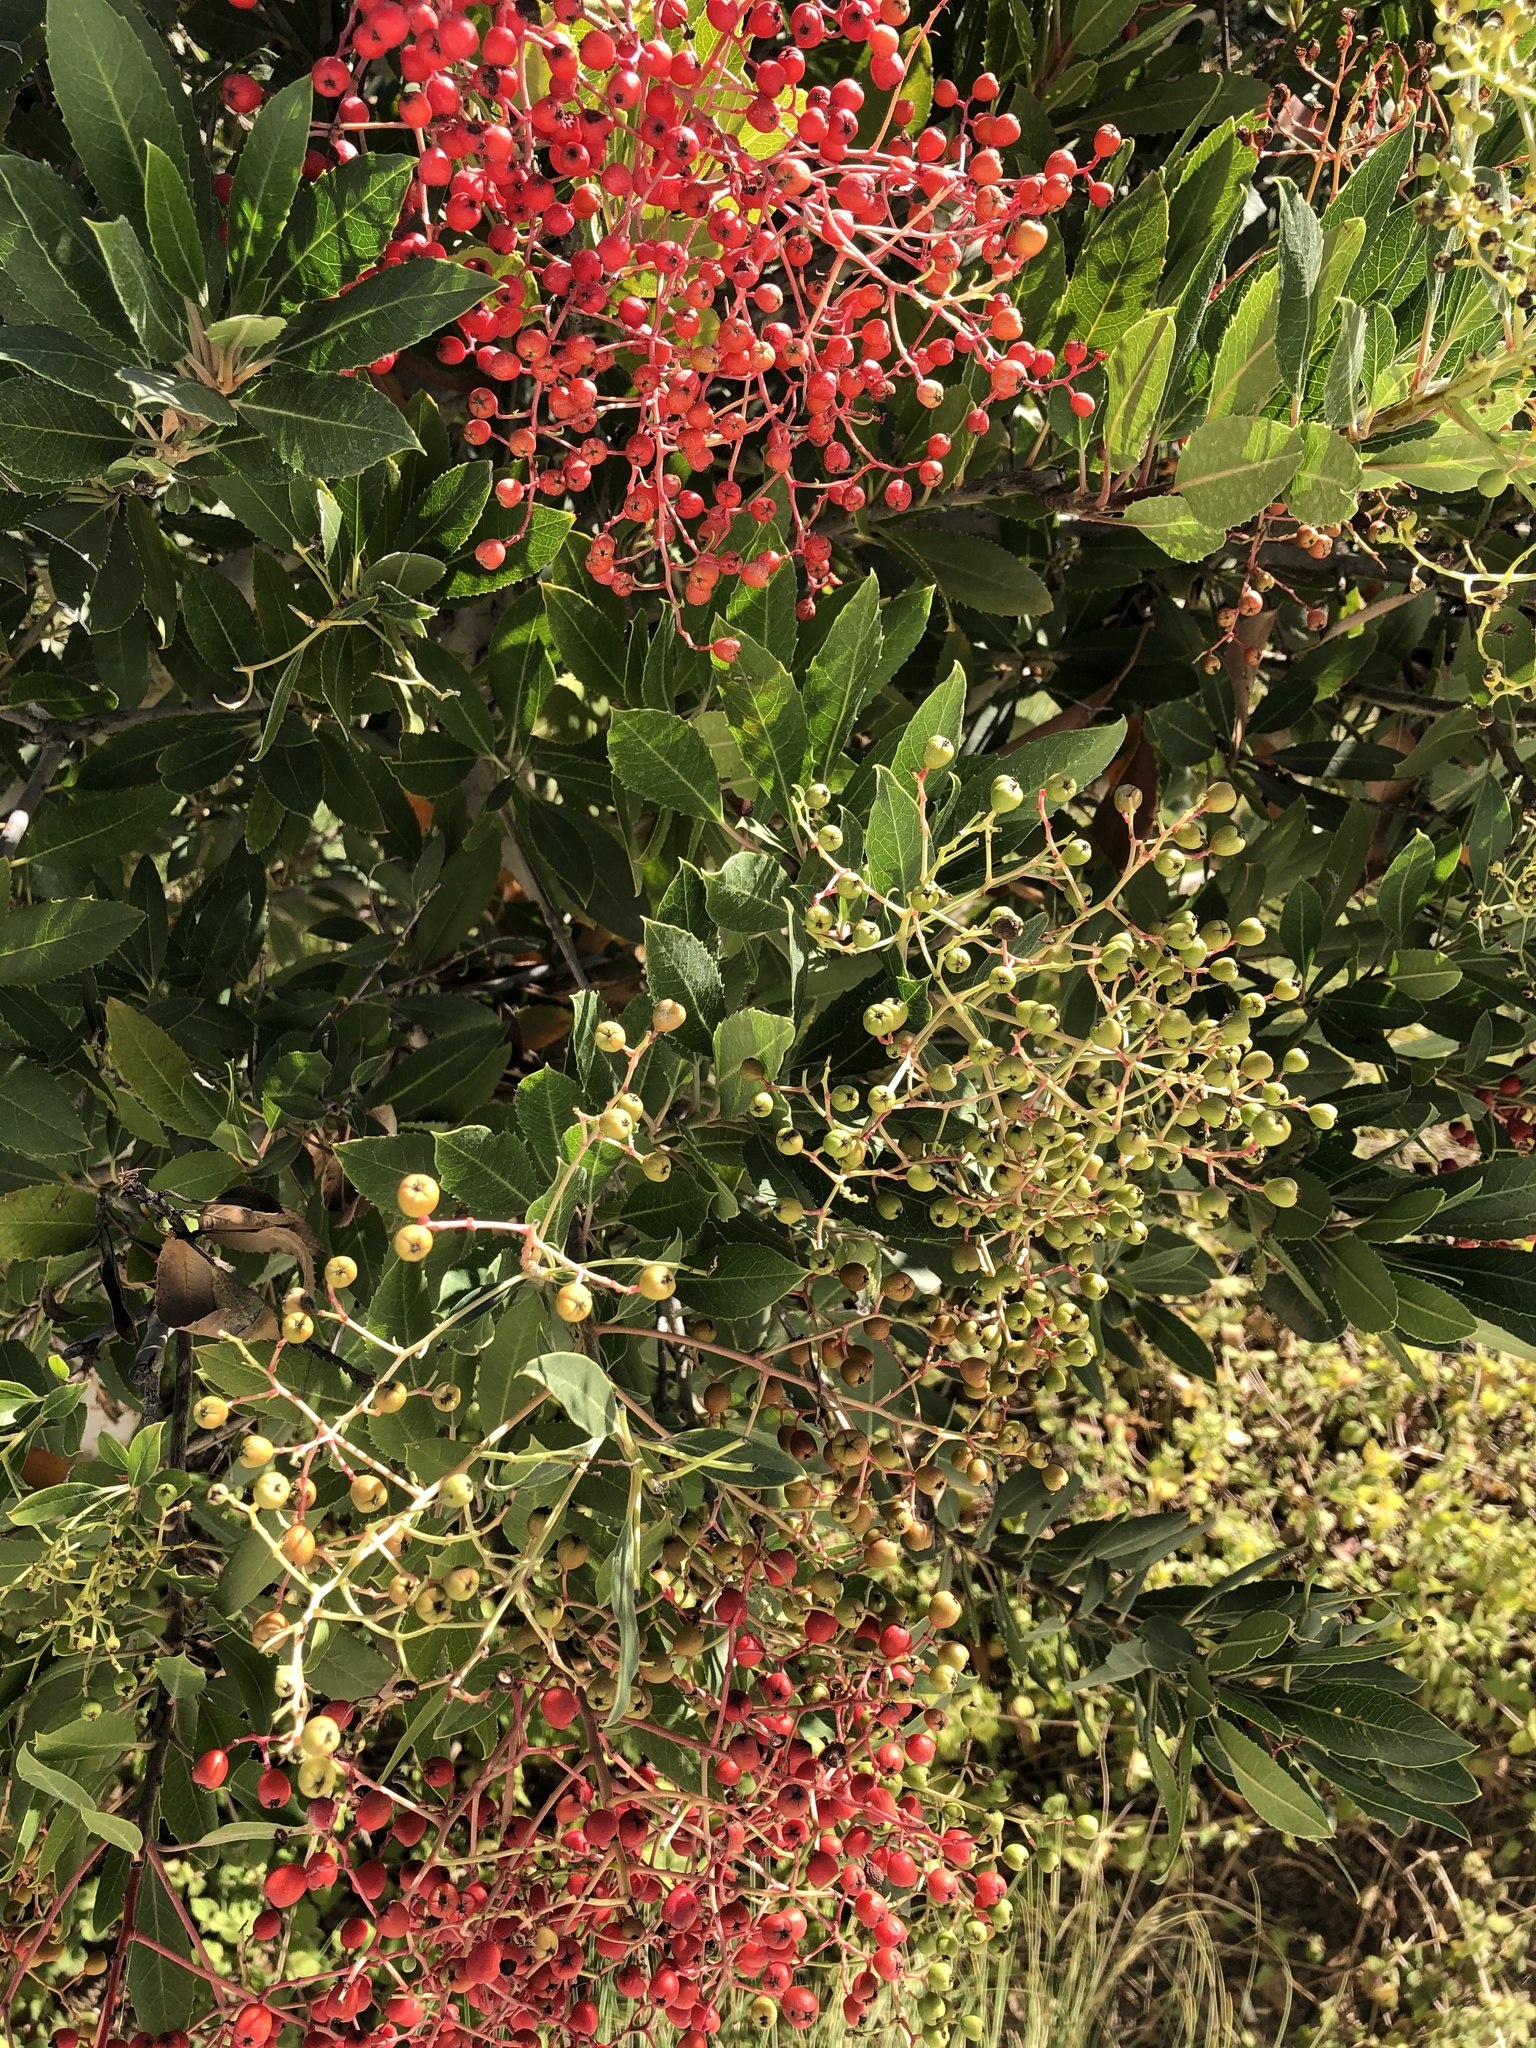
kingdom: Plantae
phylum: Tracheophyta
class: Magnoliopsida
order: Rosales
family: Rosaceae
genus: Heteromeles
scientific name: Heteromeles arbutifolia
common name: California-holly
